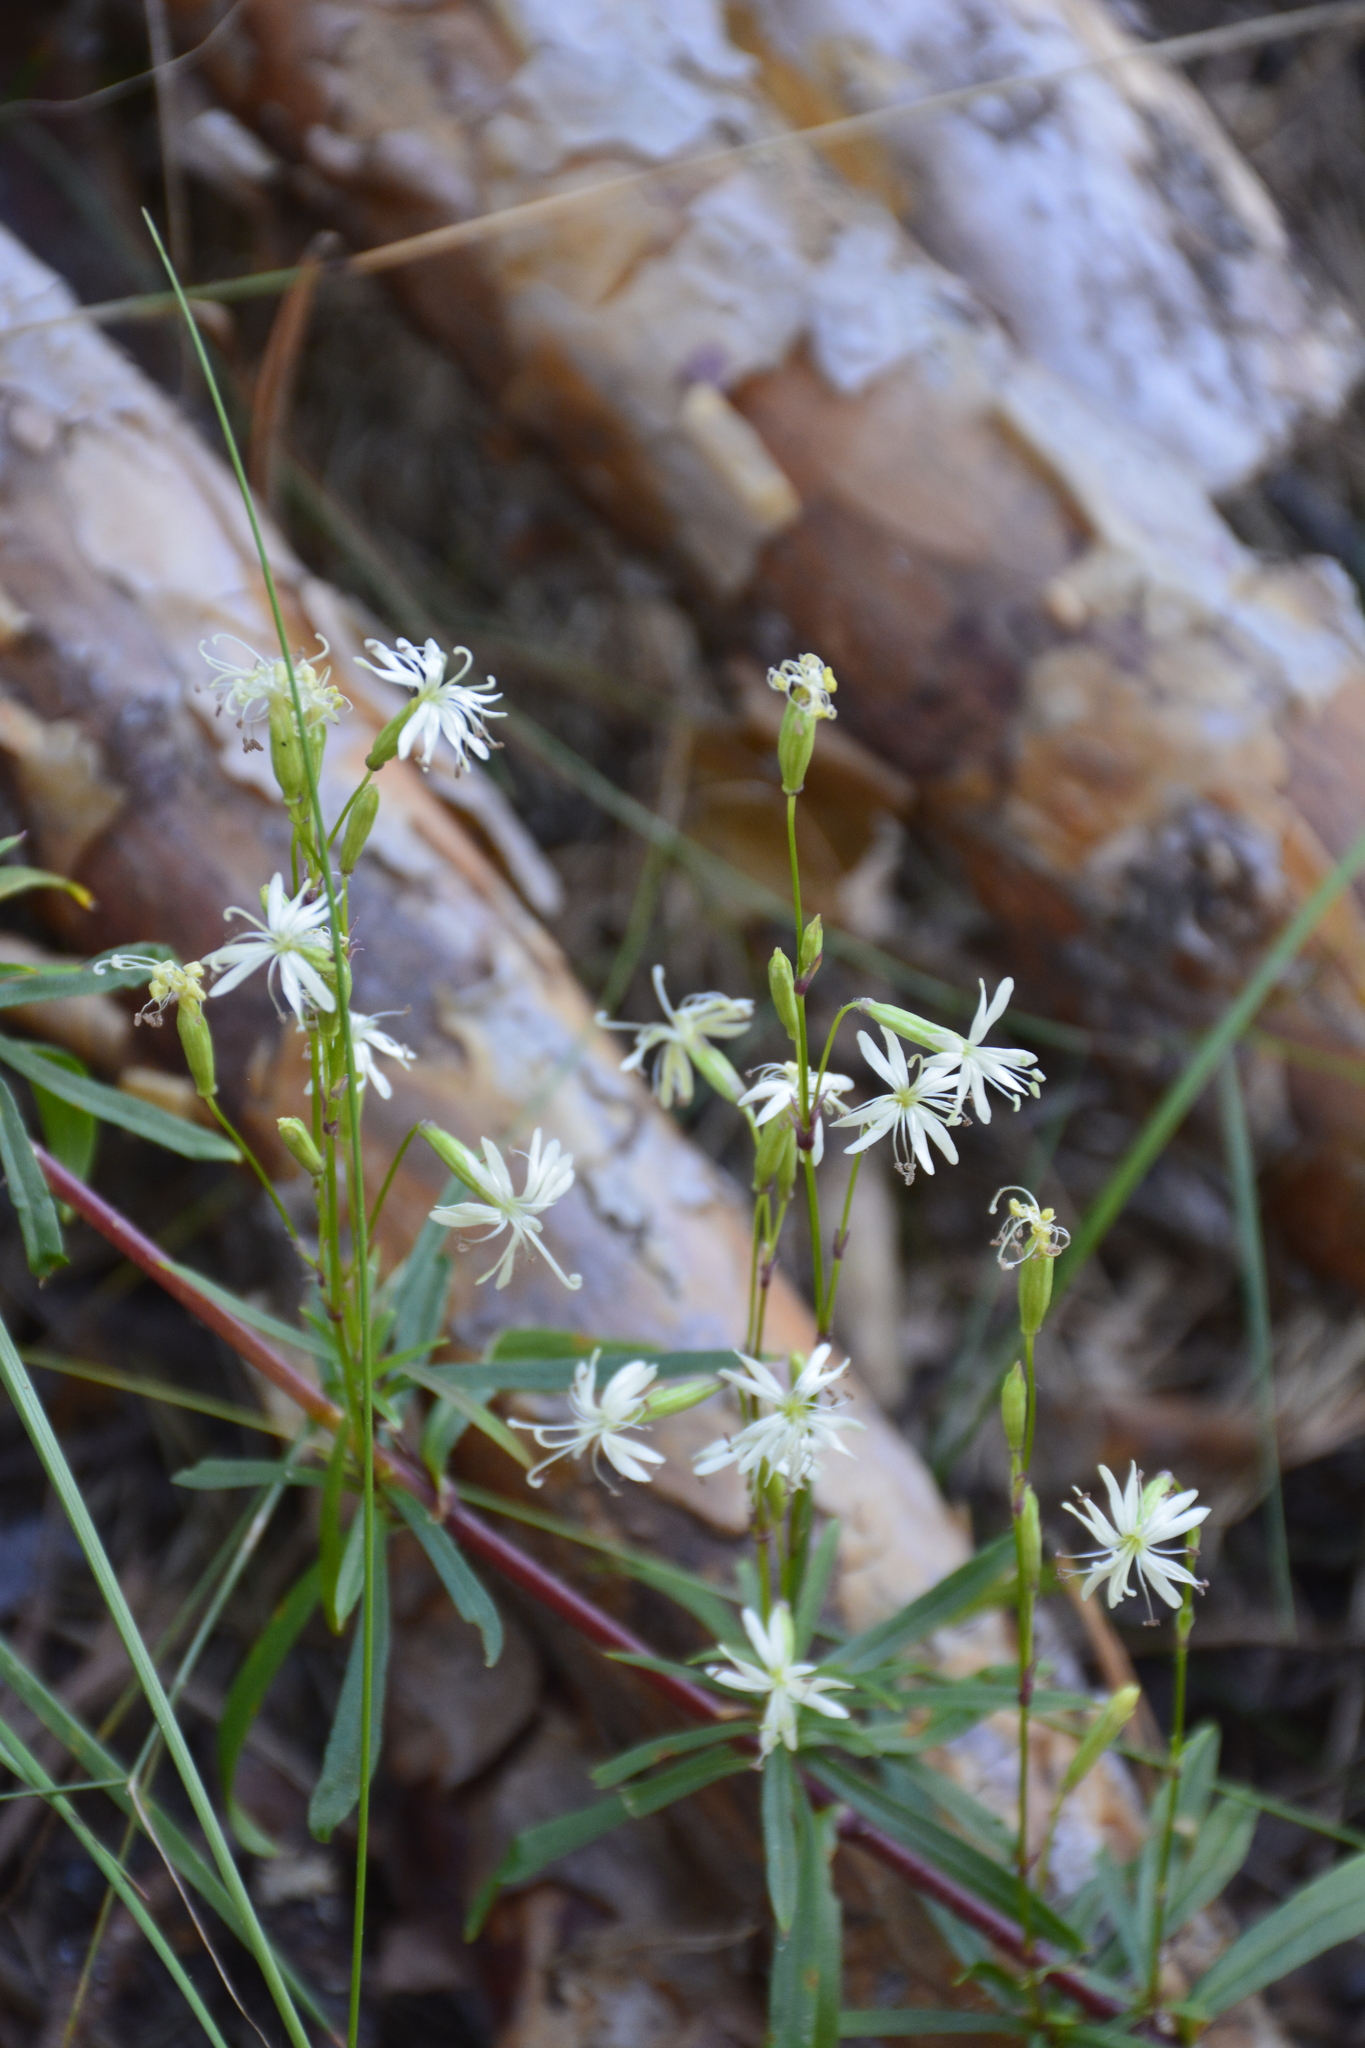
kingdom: Plantae
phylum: Tracheophyta
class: Magnoliopsida
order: Caryophyllales
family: Caryophyllaceae
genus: Silene
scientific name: Silene tatarica
